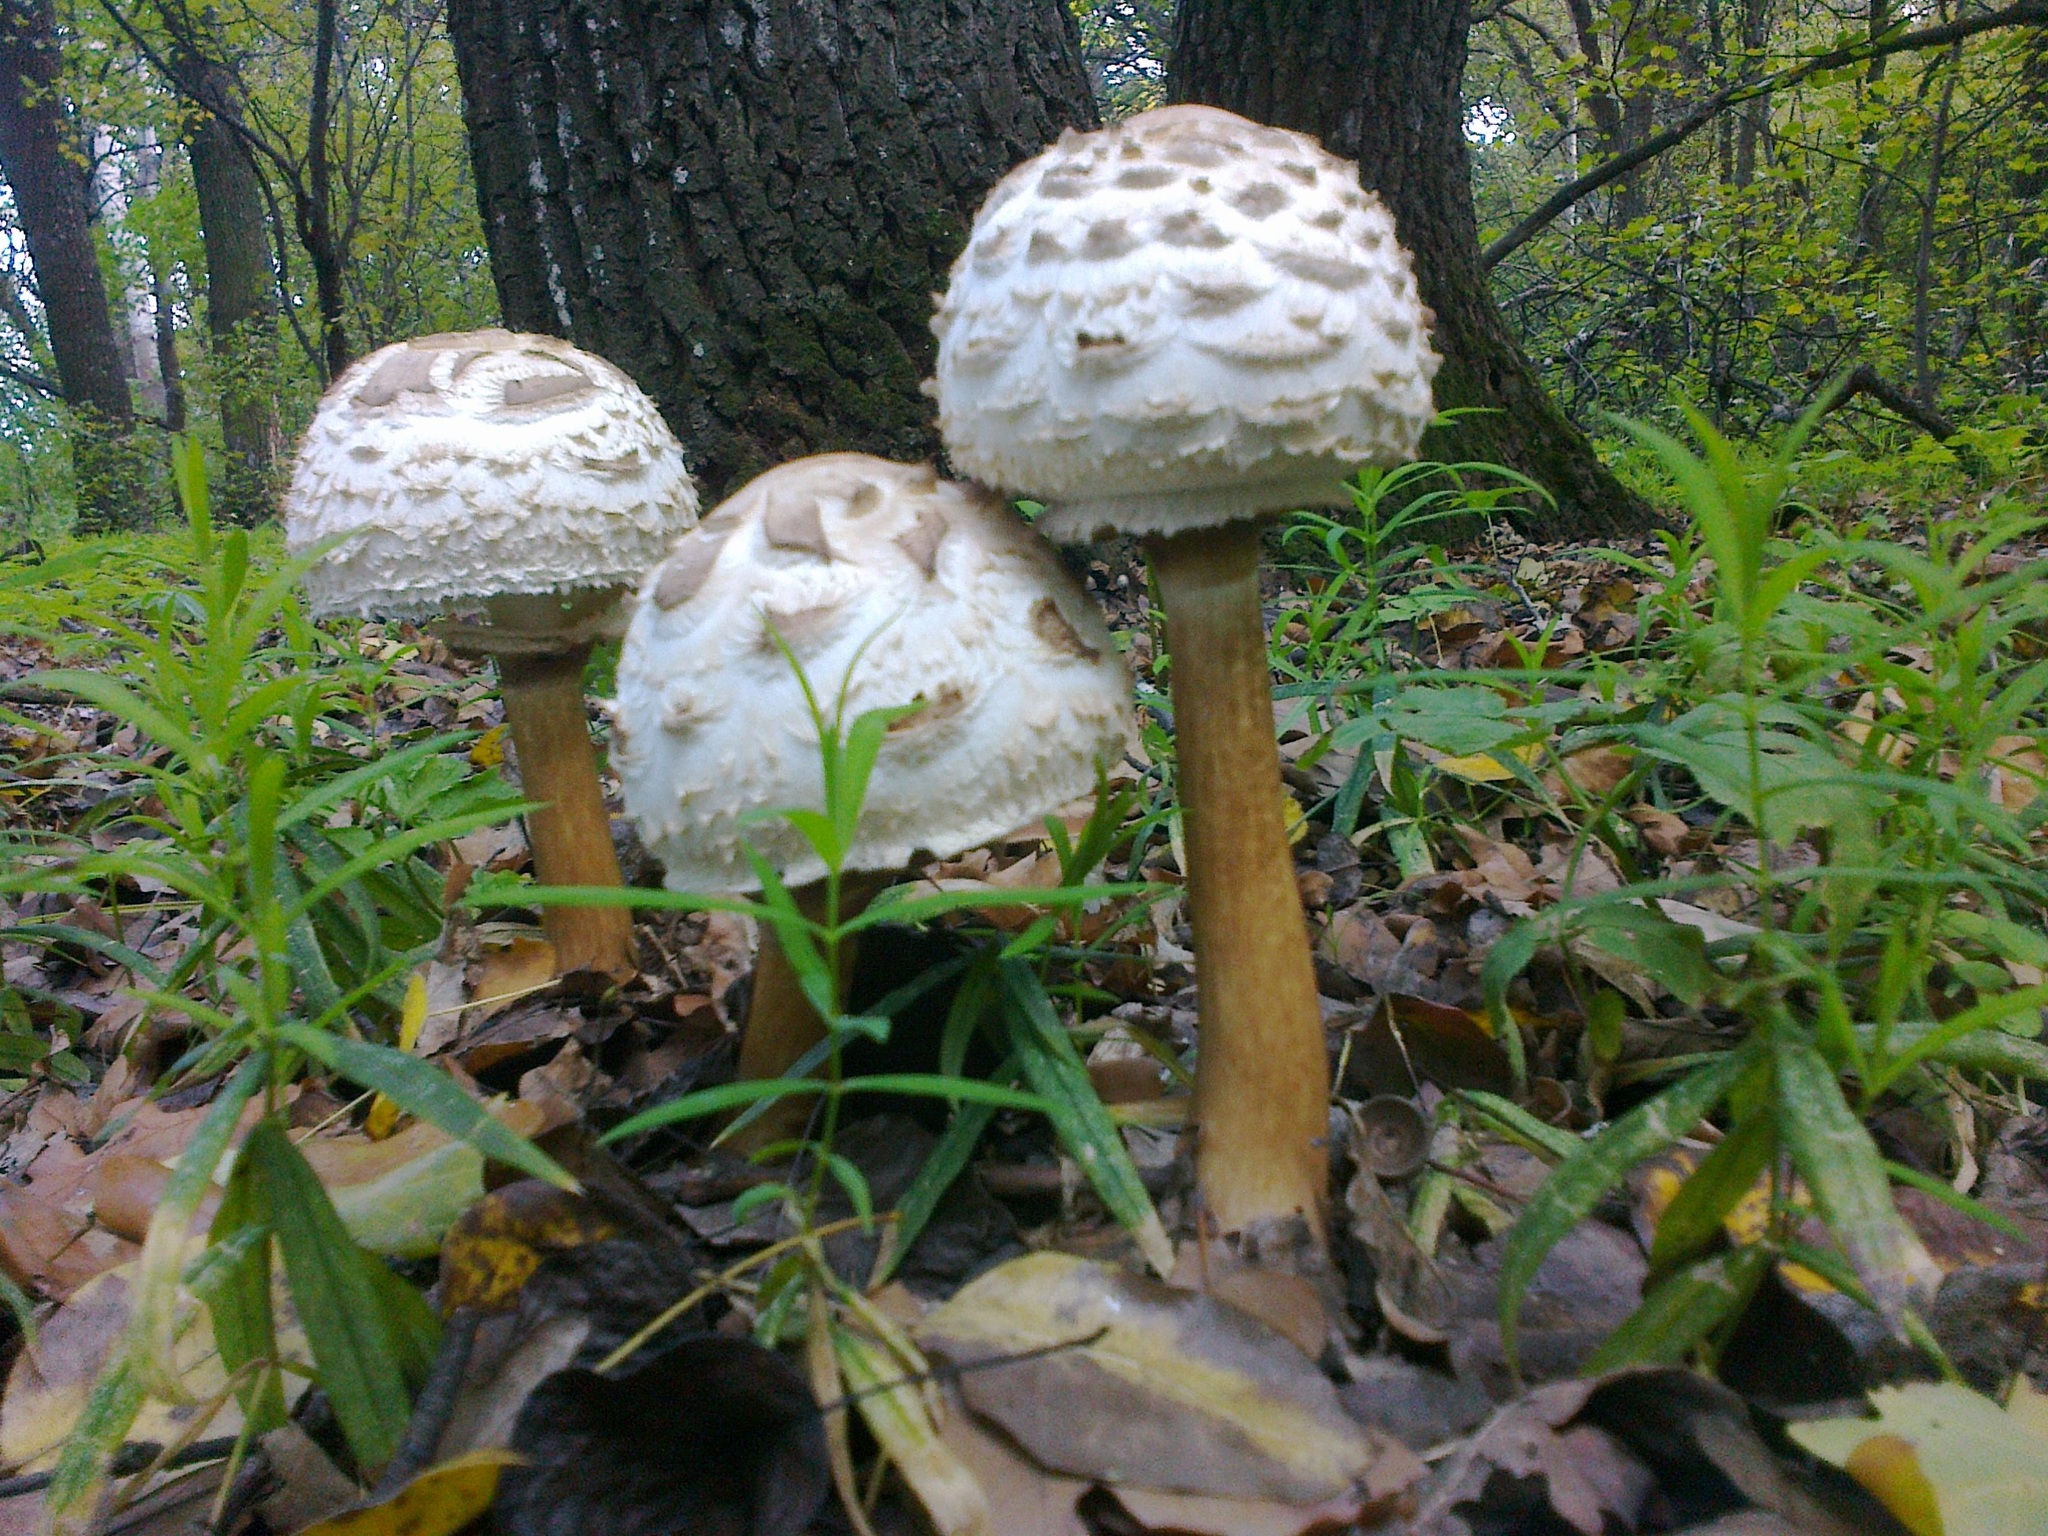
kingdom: Fungi
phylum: Basidiomycota
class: Agaricomycetes
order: Agaricales
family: Agaricaceae
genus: Chlorophyllum
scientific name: Chlorophyllum rhacodes
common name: Shaggy parasol
